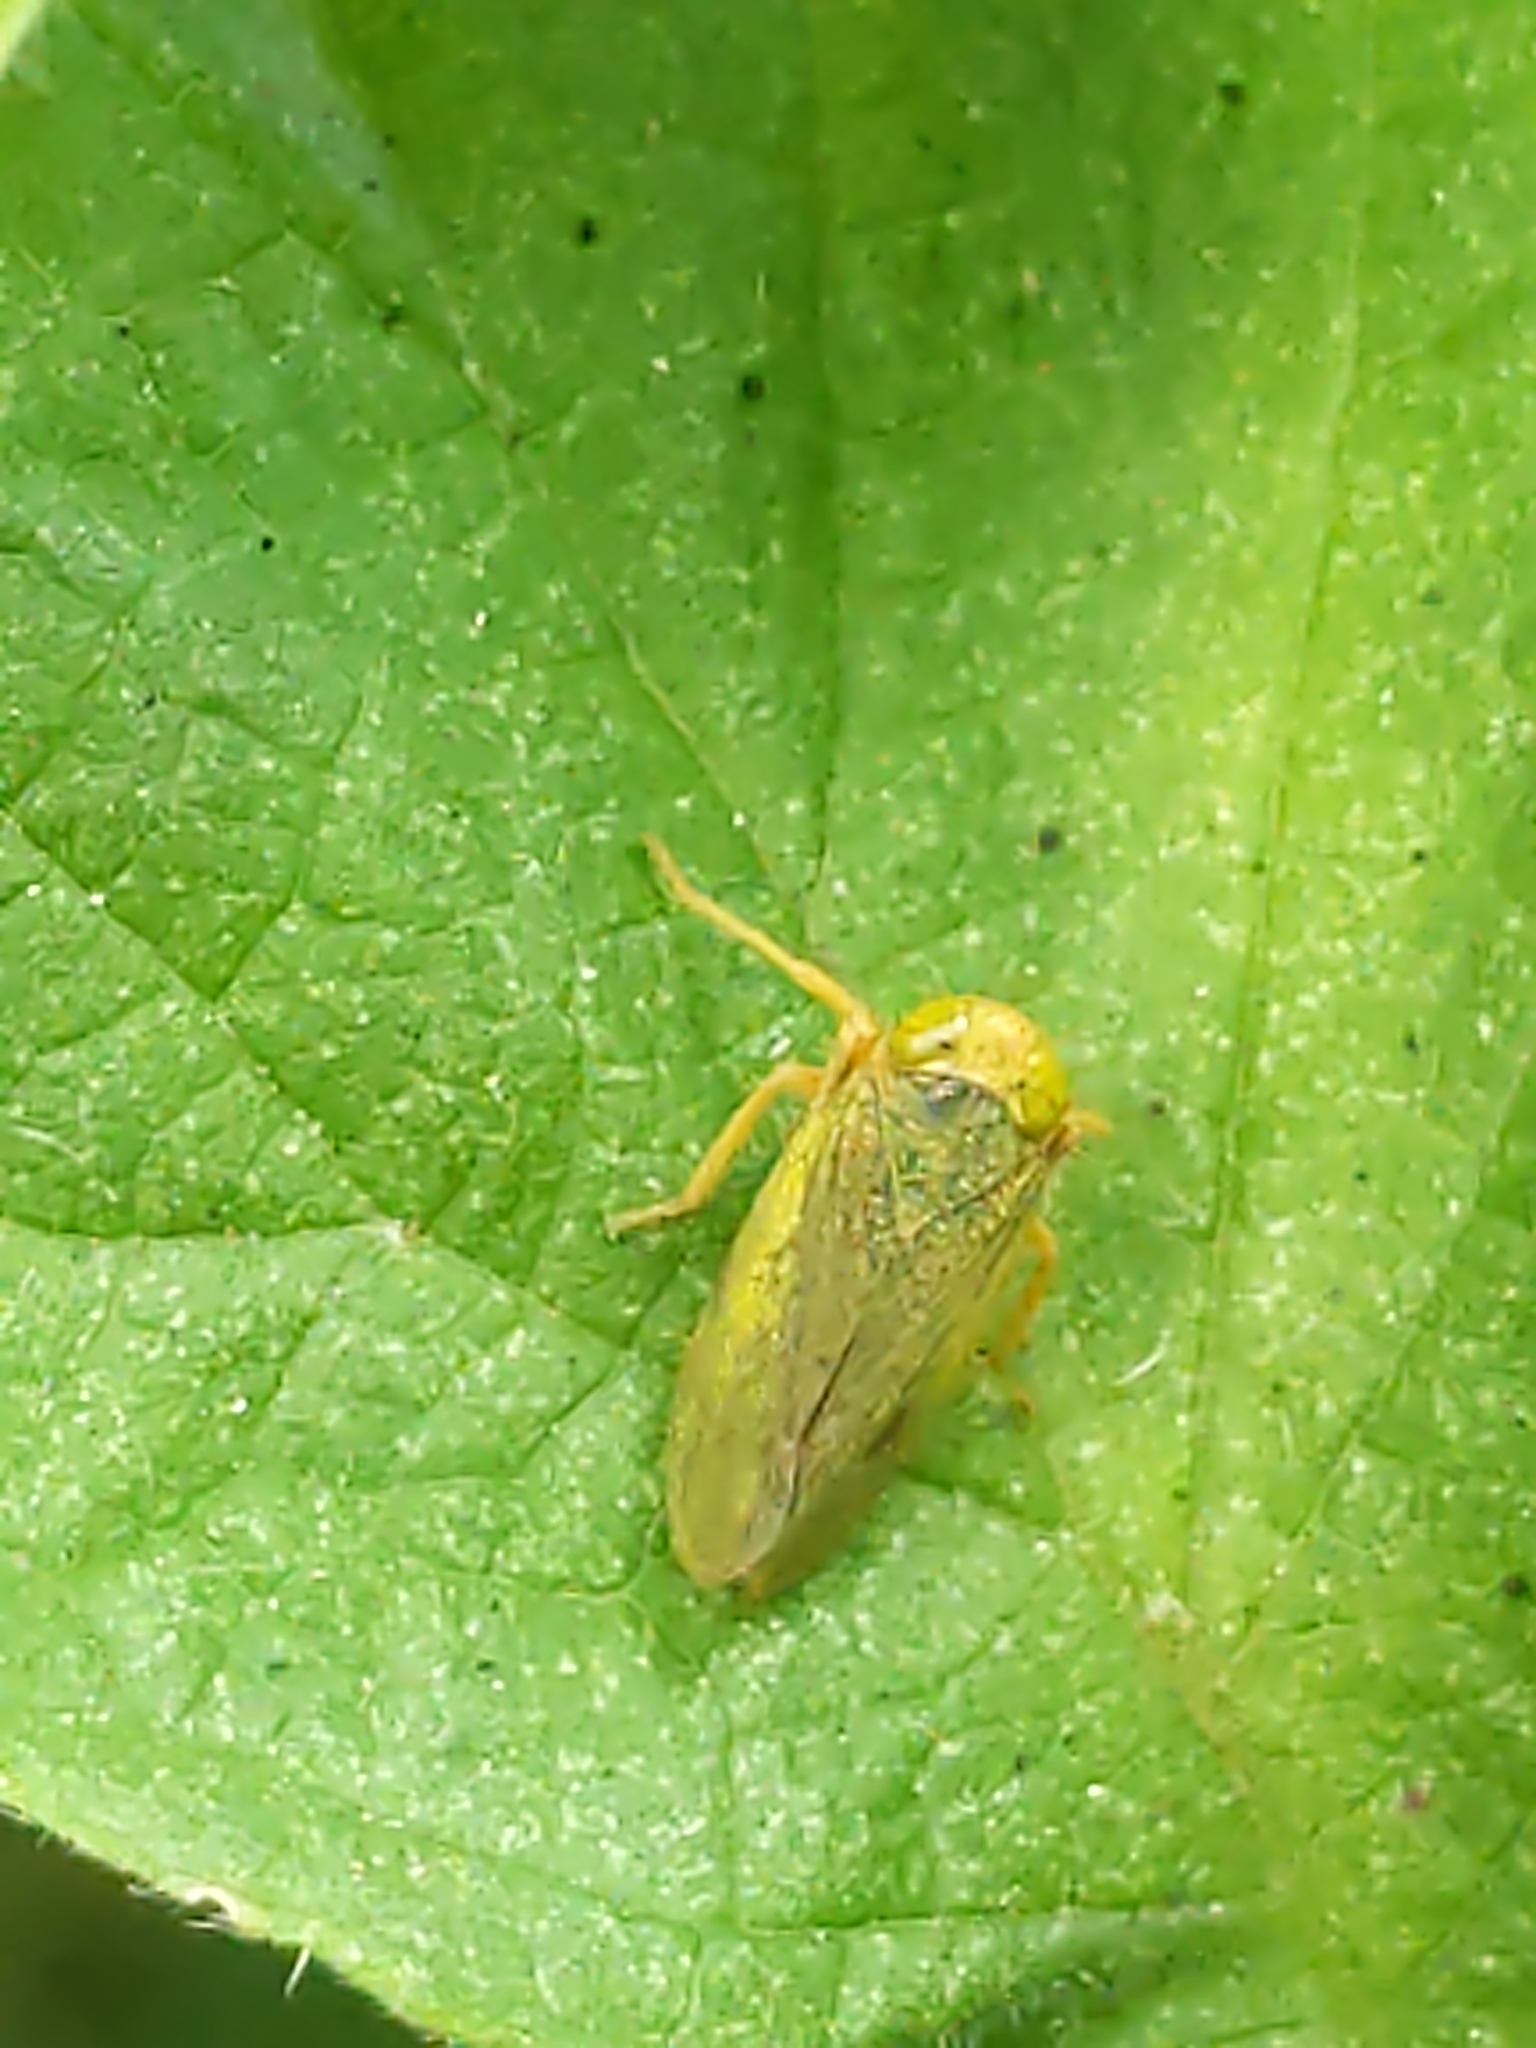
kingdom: Animalia
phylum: Arthropoda
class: Insecta
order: Hemiptera
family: Cicadellidae
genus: Jikradia
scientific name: Jikradia olitoria
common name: Coppery leafhopper
